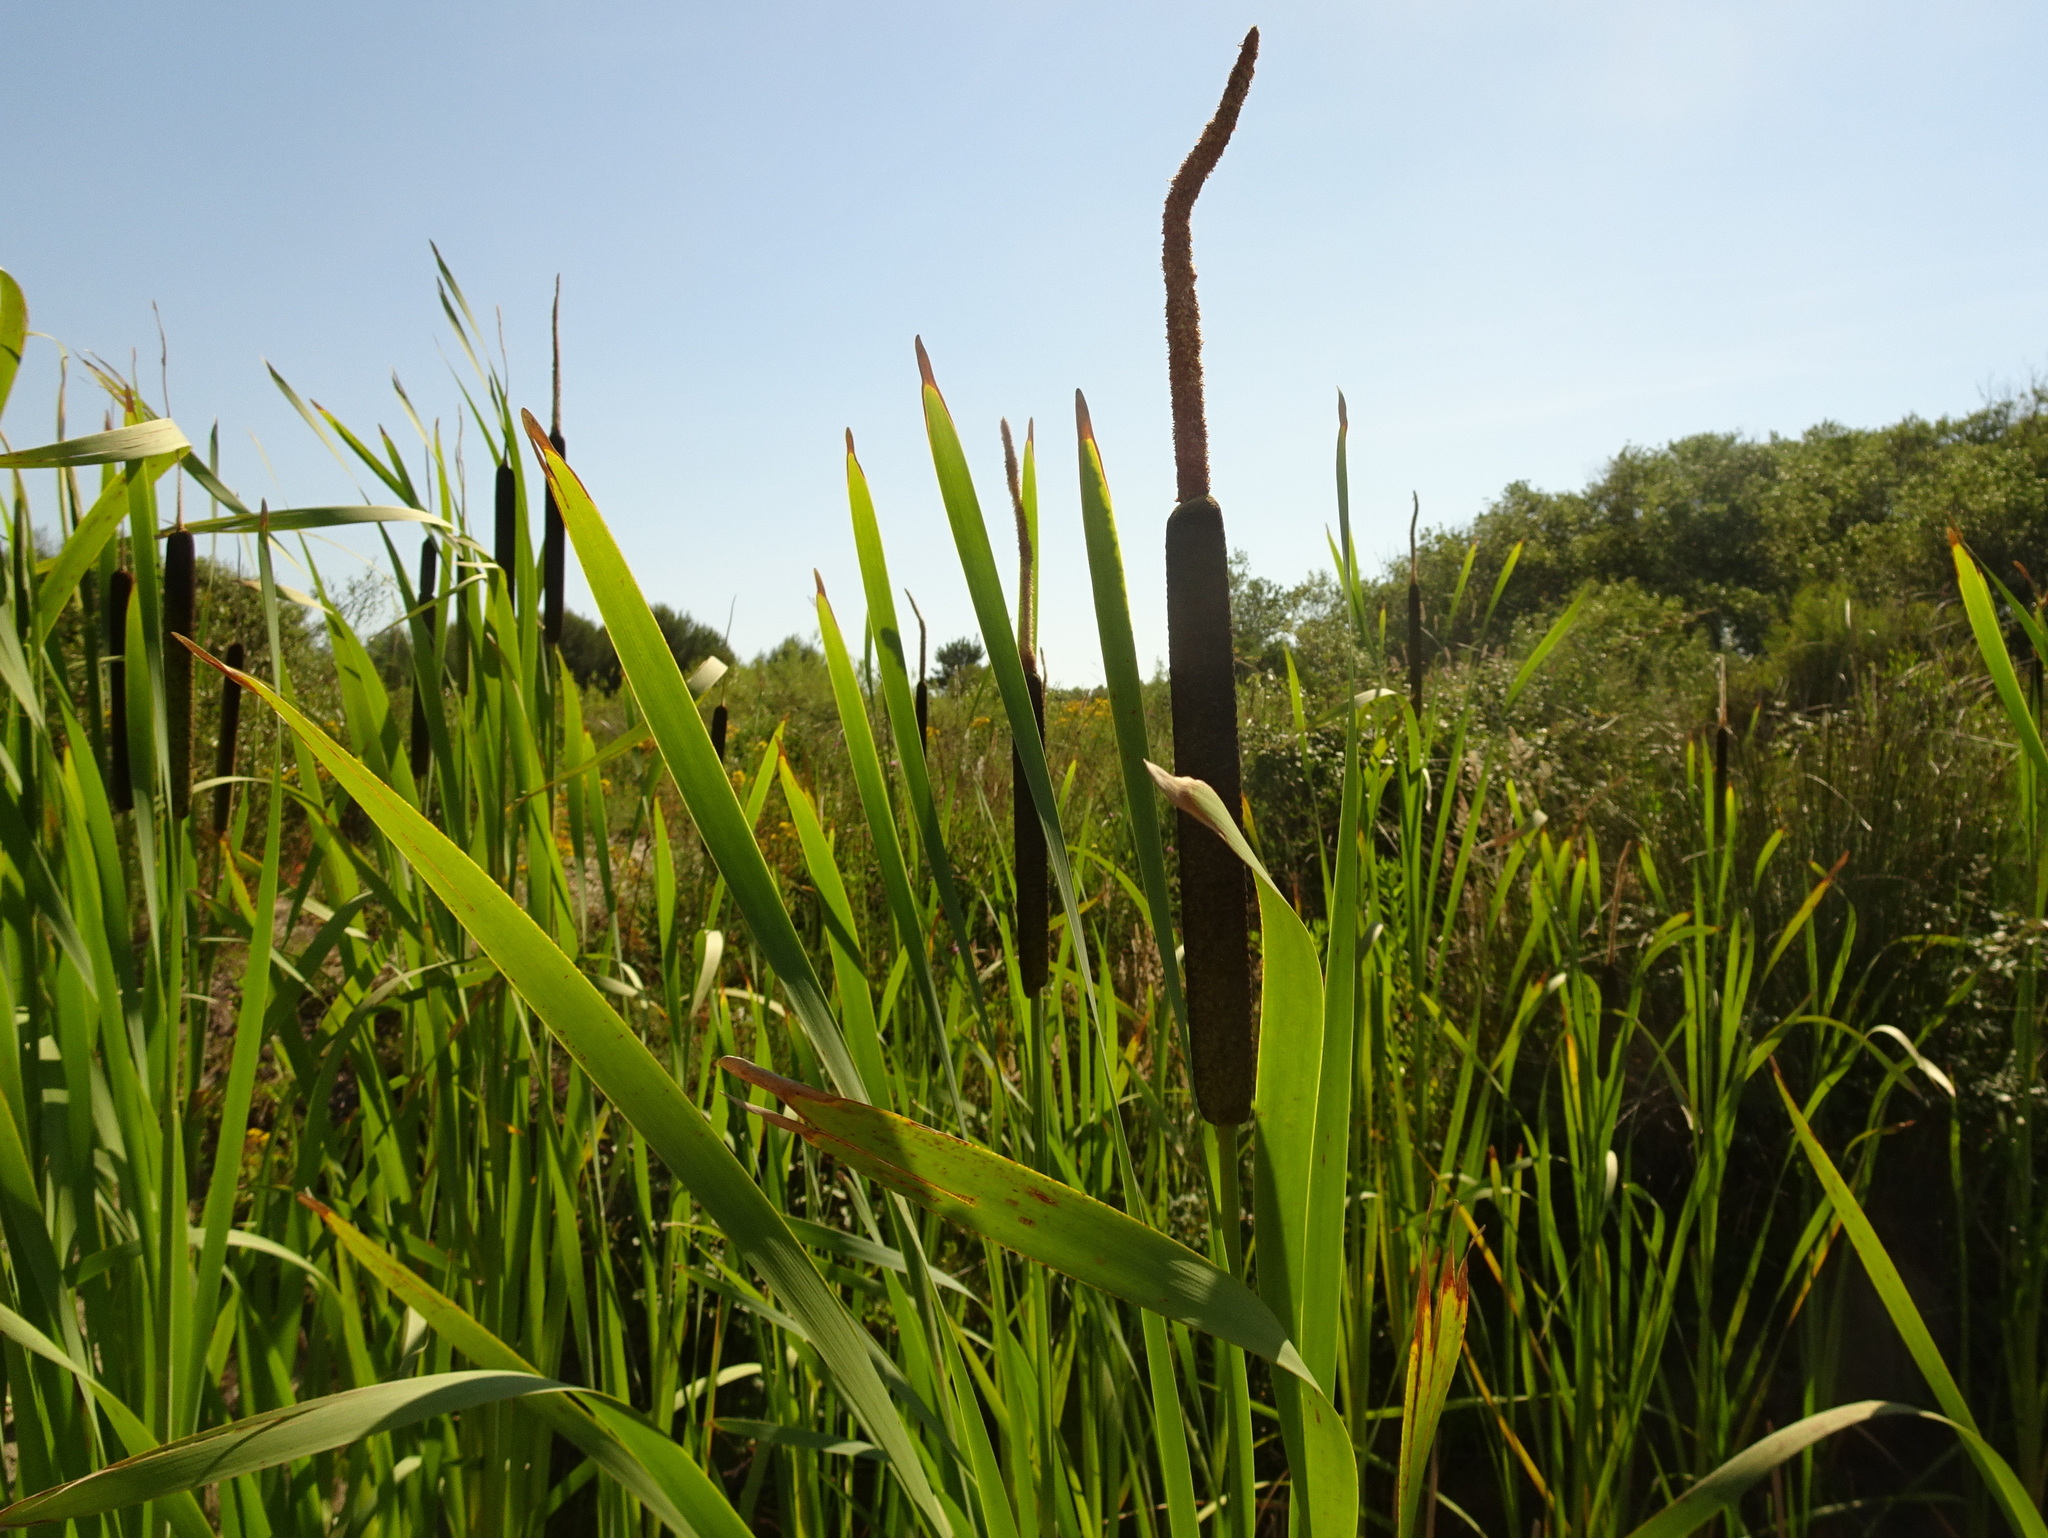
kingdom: Plantae
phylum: Tracheophyta
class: Liliopsida
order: Poales
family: Typhaceae
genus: Typha
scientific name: Typha latifolia
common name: Broadleaf cattail
